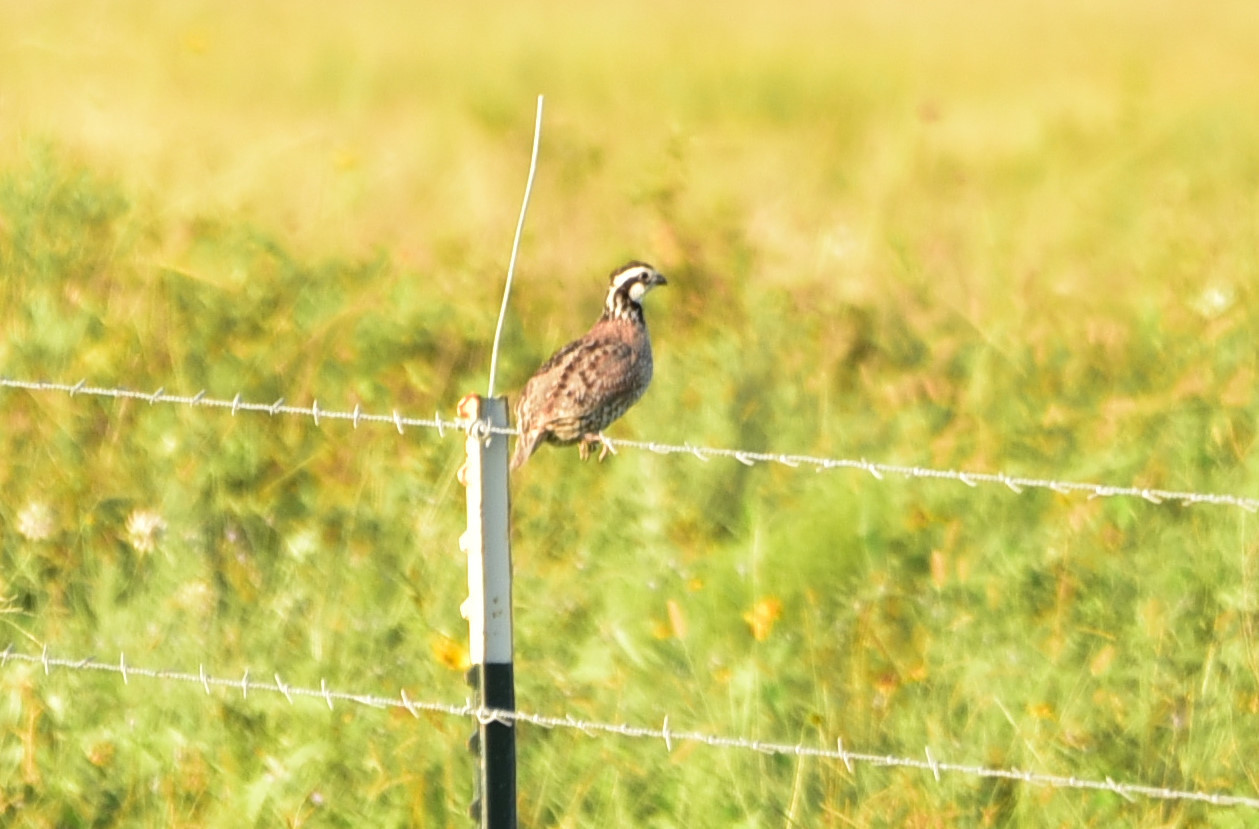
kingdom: Animalia
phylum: Chordata
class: Aves
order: Galliformes
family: Odontophoridae
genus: Colinus
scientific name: Colinus virginianus
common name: Northern bobwhite
